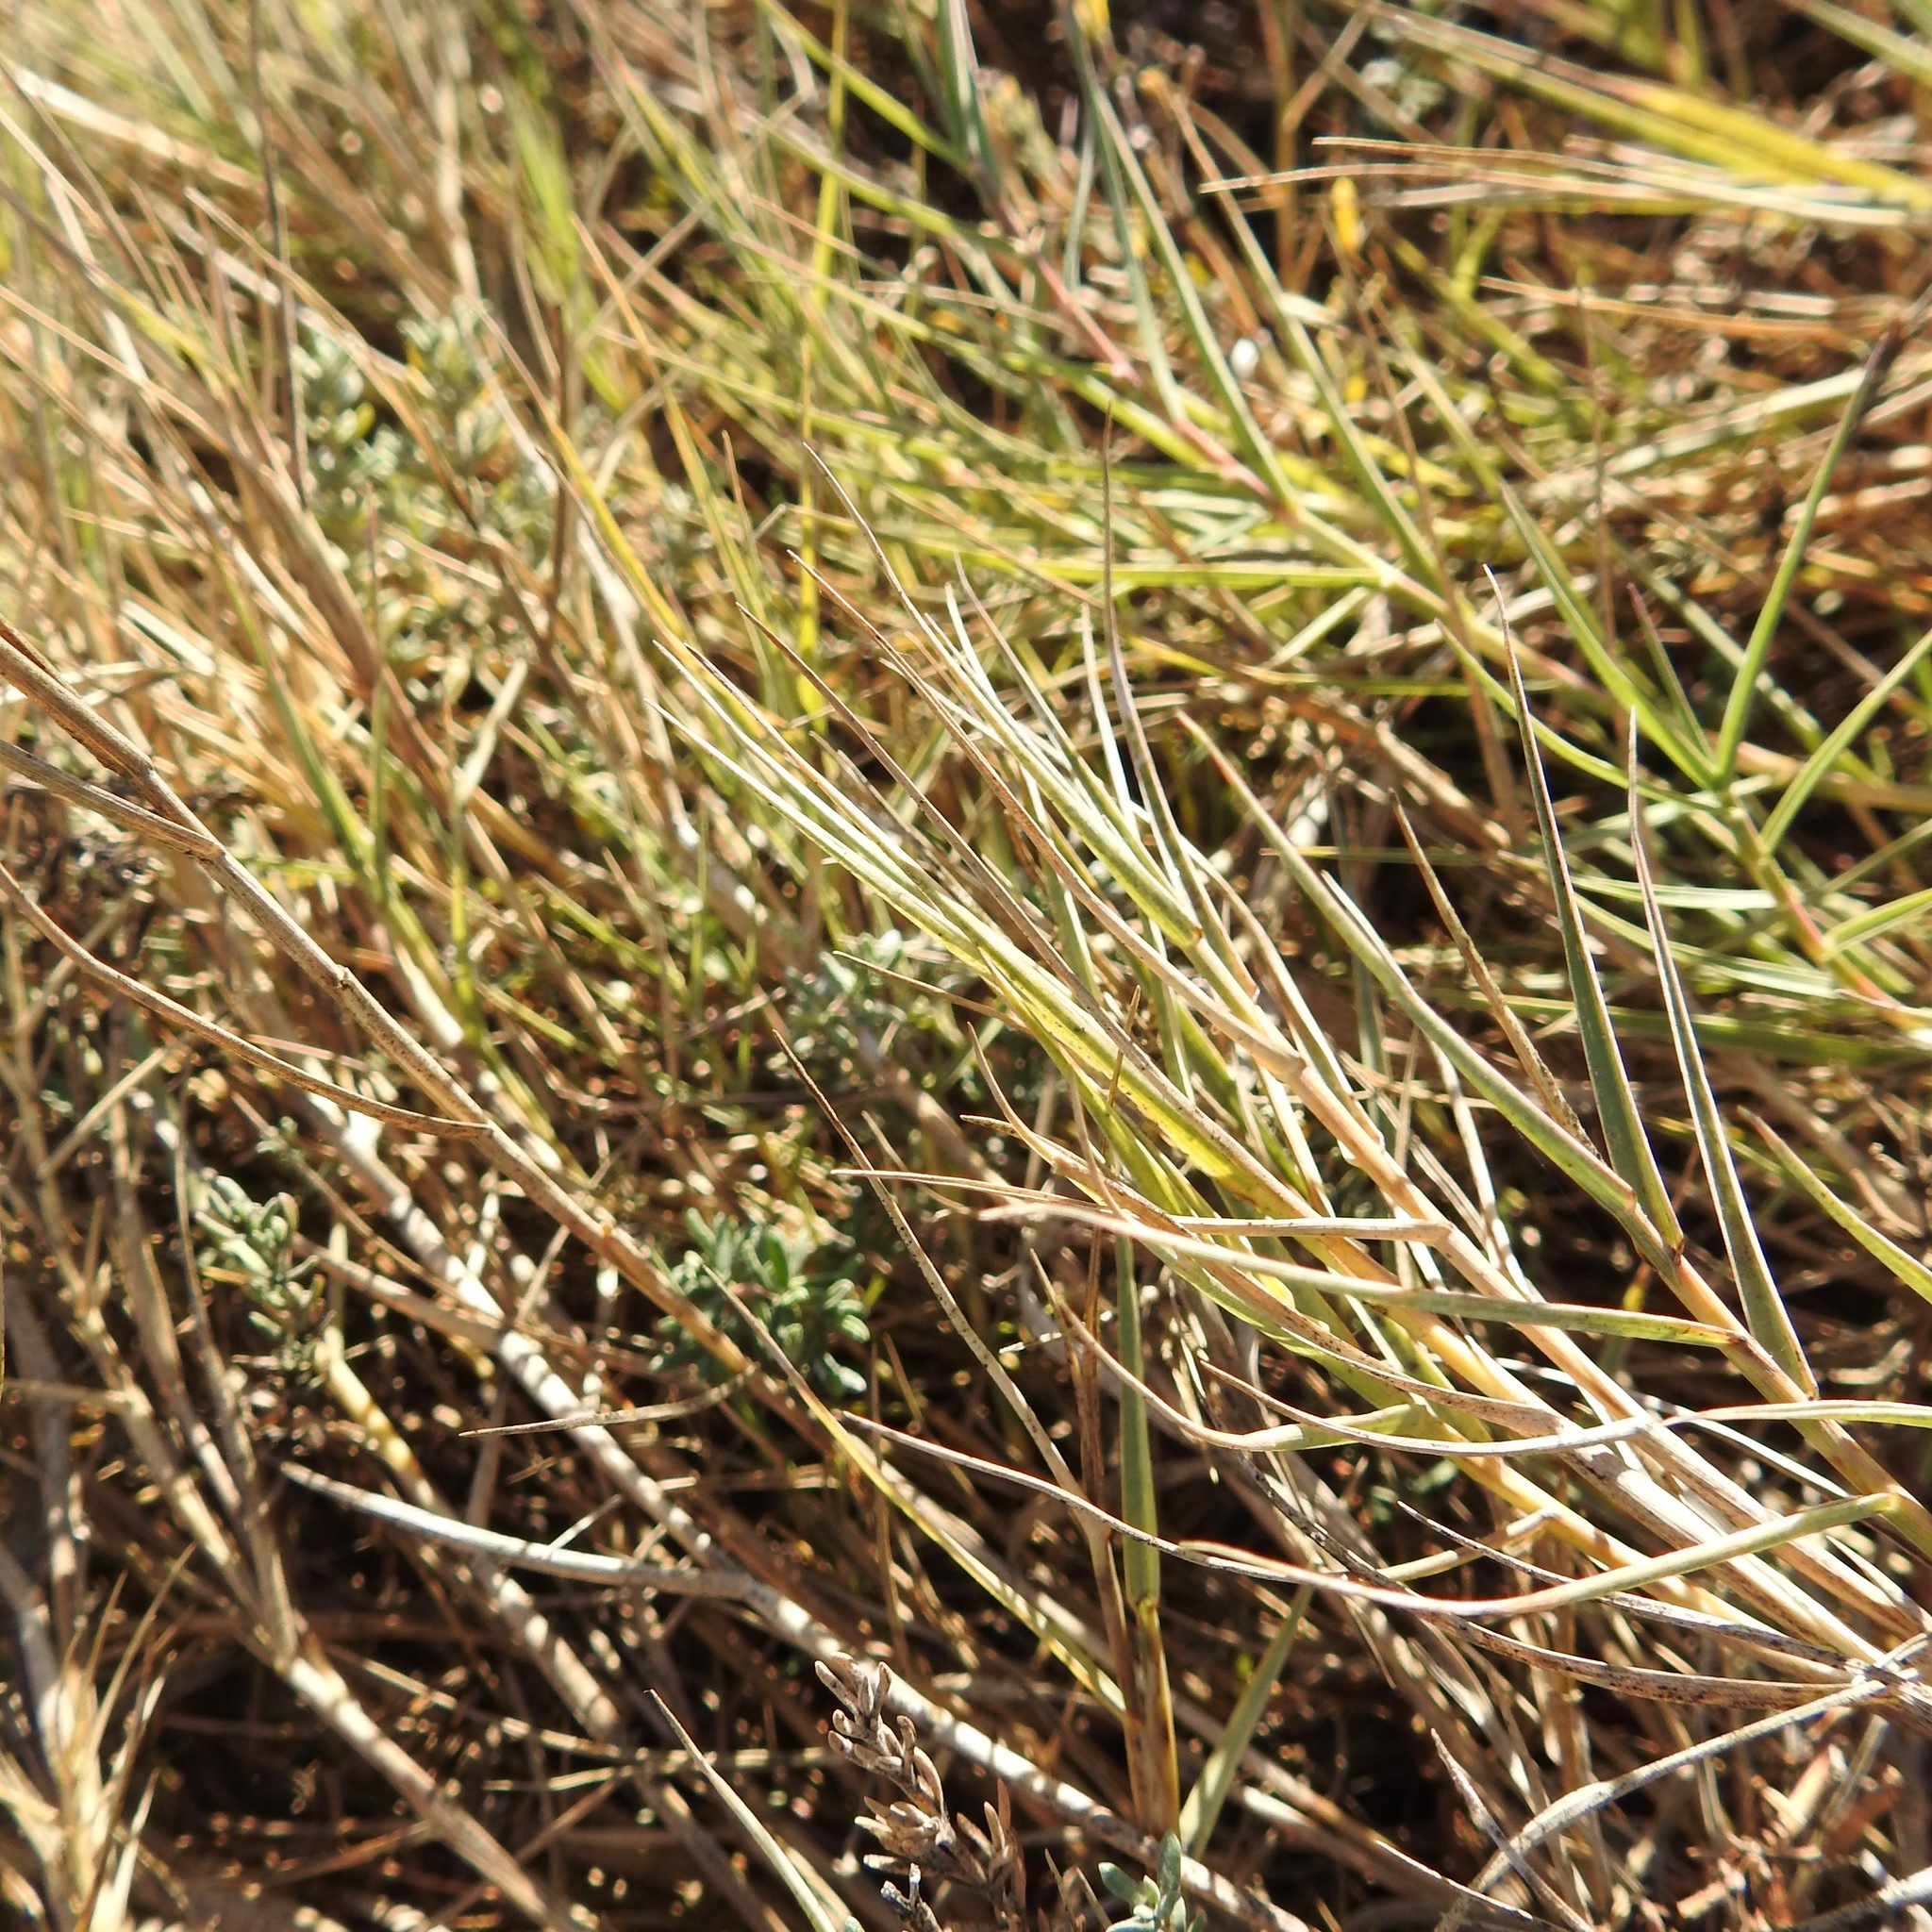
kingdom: Plantae
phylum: Tracheophyta
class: Liliopsida
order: Poales
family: Poaceae
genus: Distichlis
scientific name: Distichlis spicata
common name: Saltgrass
